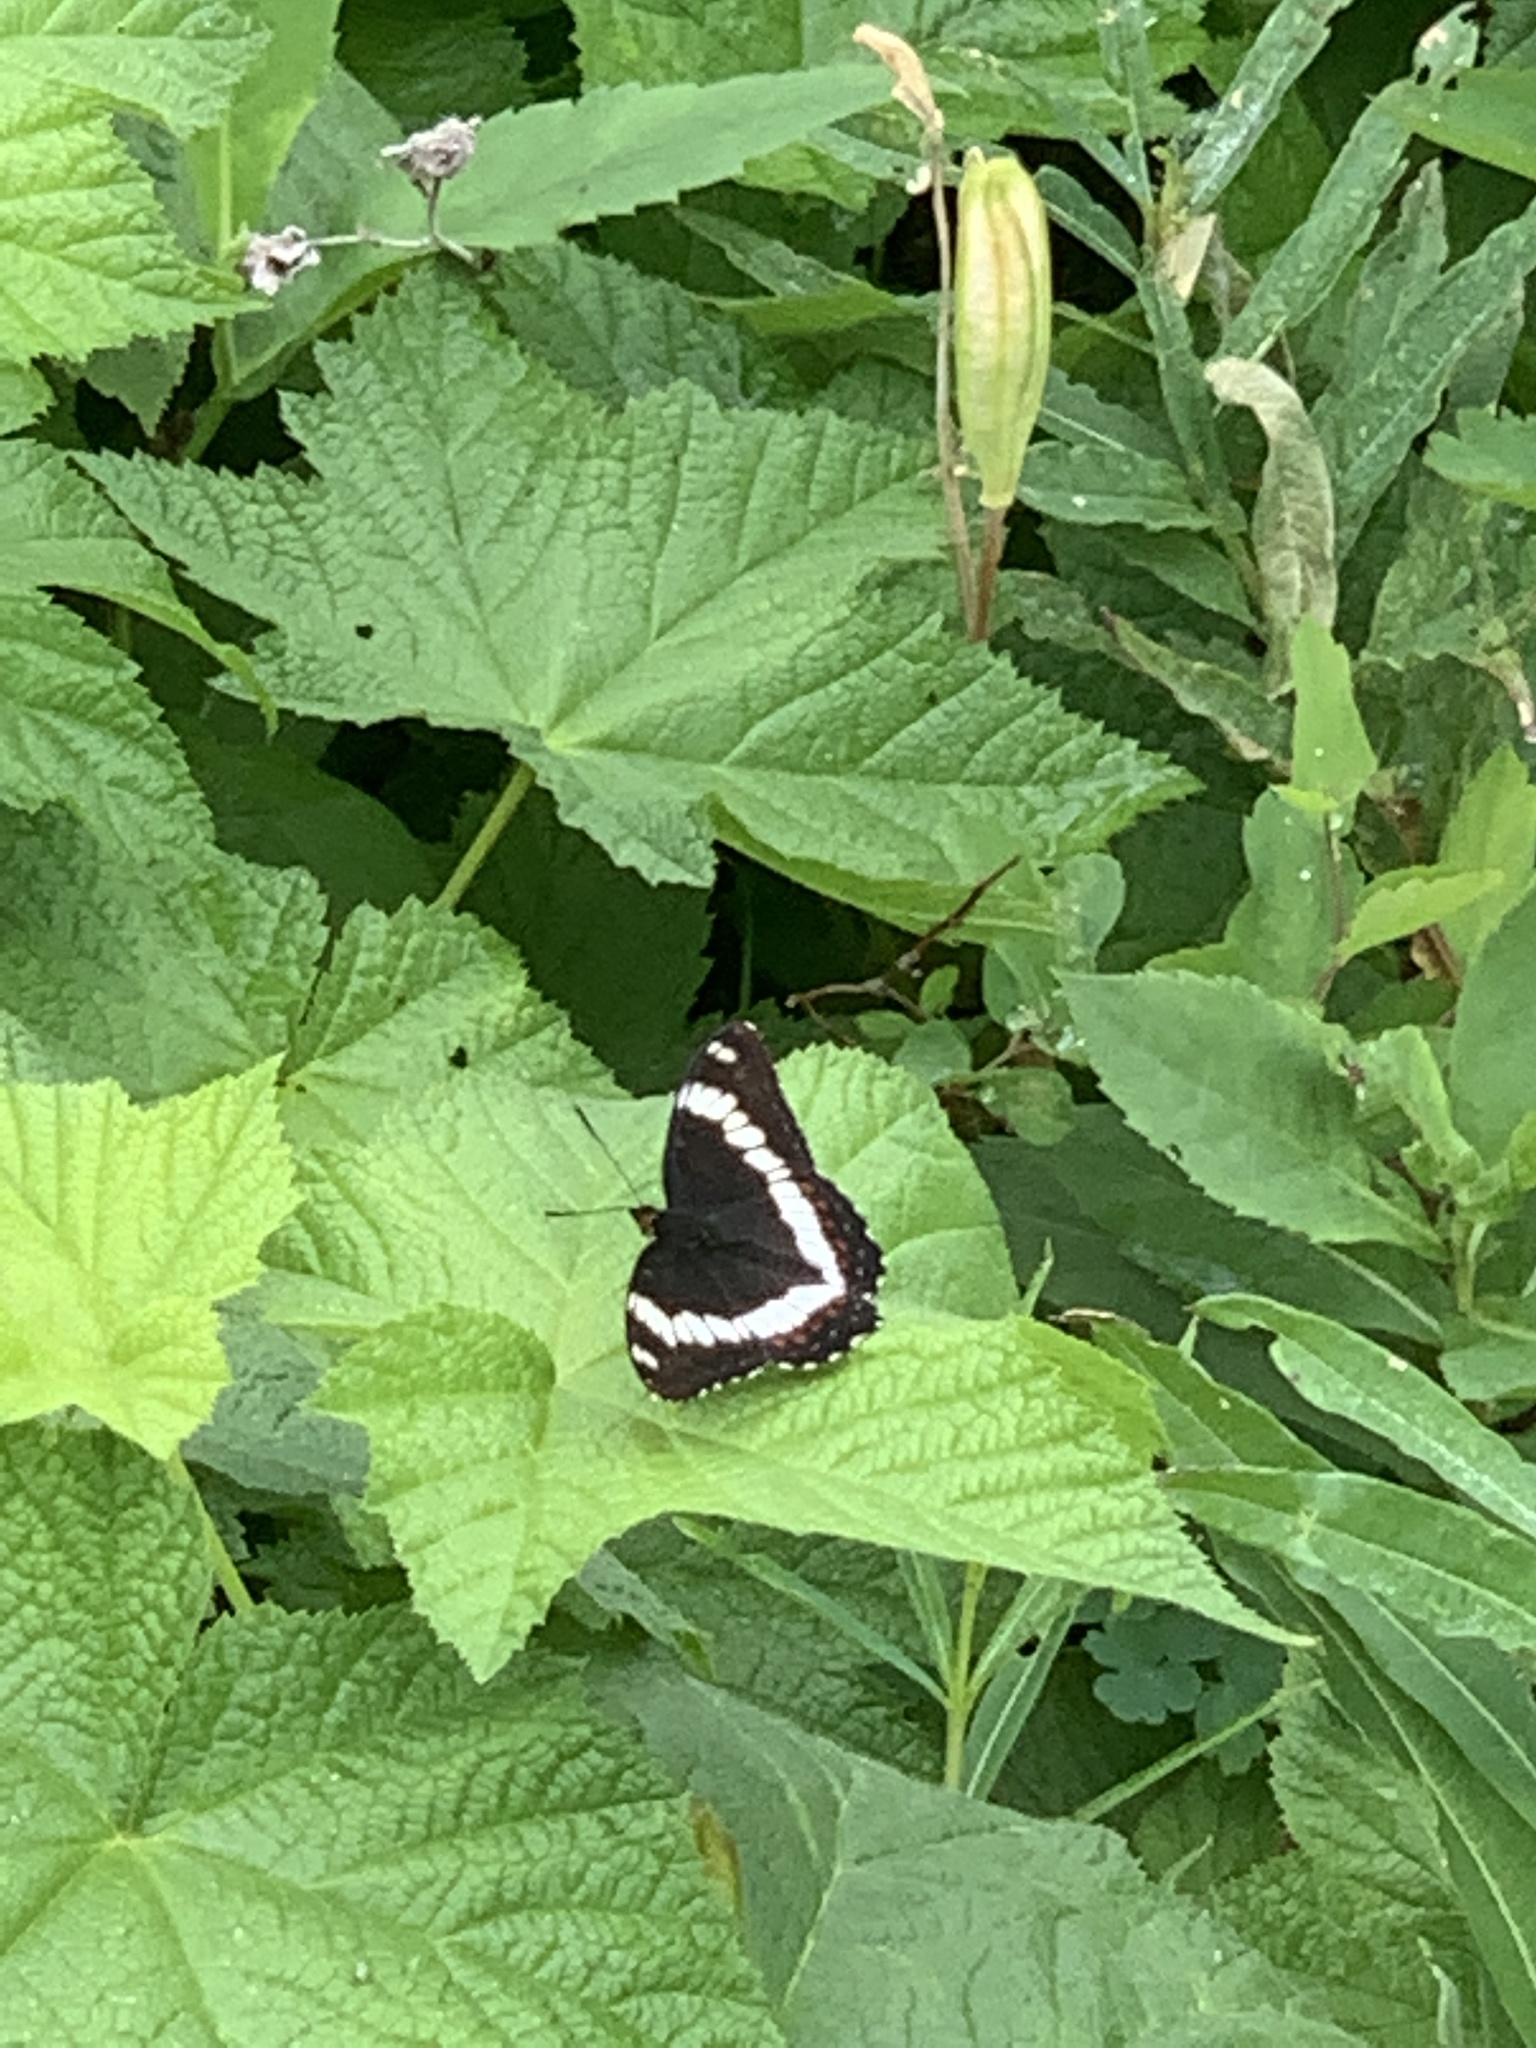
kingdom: Animalia
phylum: Arthropoda
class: Insecta
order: Lepidoptera
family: Nymphalidae
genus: Limenitis
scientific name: Limenitis arthemis
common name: Red-spotted admiral
